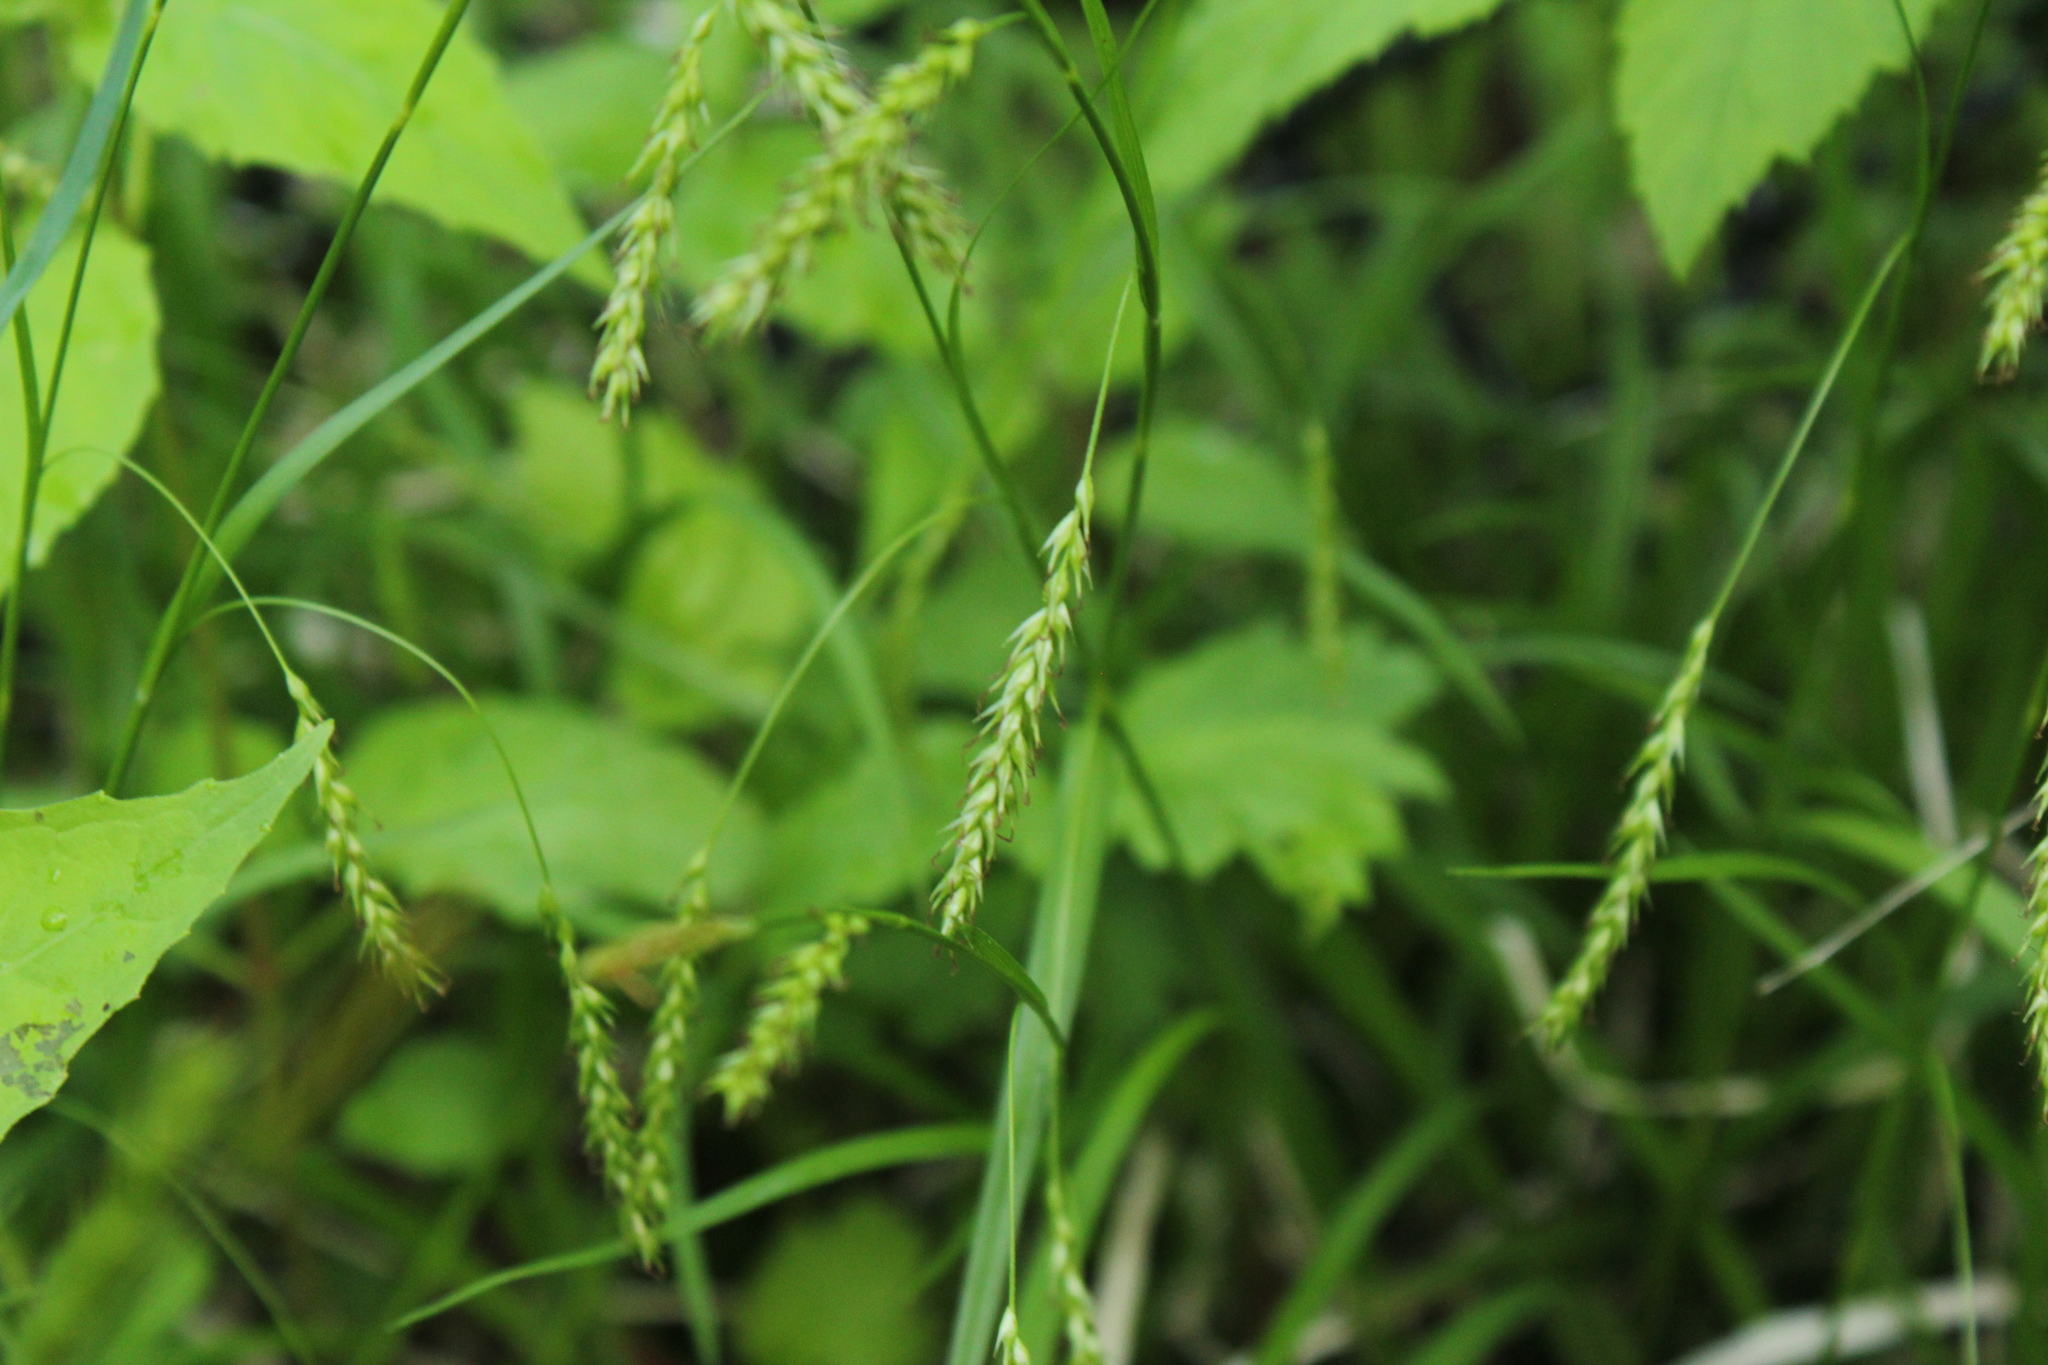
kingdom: Plantae
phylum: Tracheophyta
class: Liliopsida
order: Poales
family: Cyperaceae
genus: Carex
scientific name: Carex sylvatica
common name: Wood-sedge
